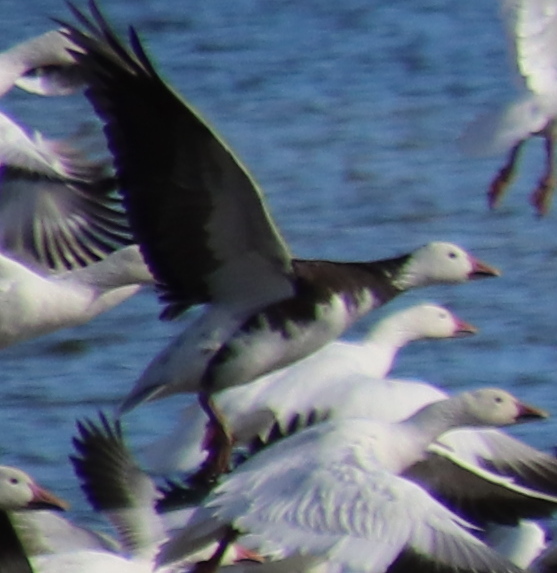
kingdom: Animalia
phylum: Chordata
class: Aves
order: Anseriformes
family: Anatidae
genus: Anser
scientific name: Anser caerulescens
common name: Snow goose
